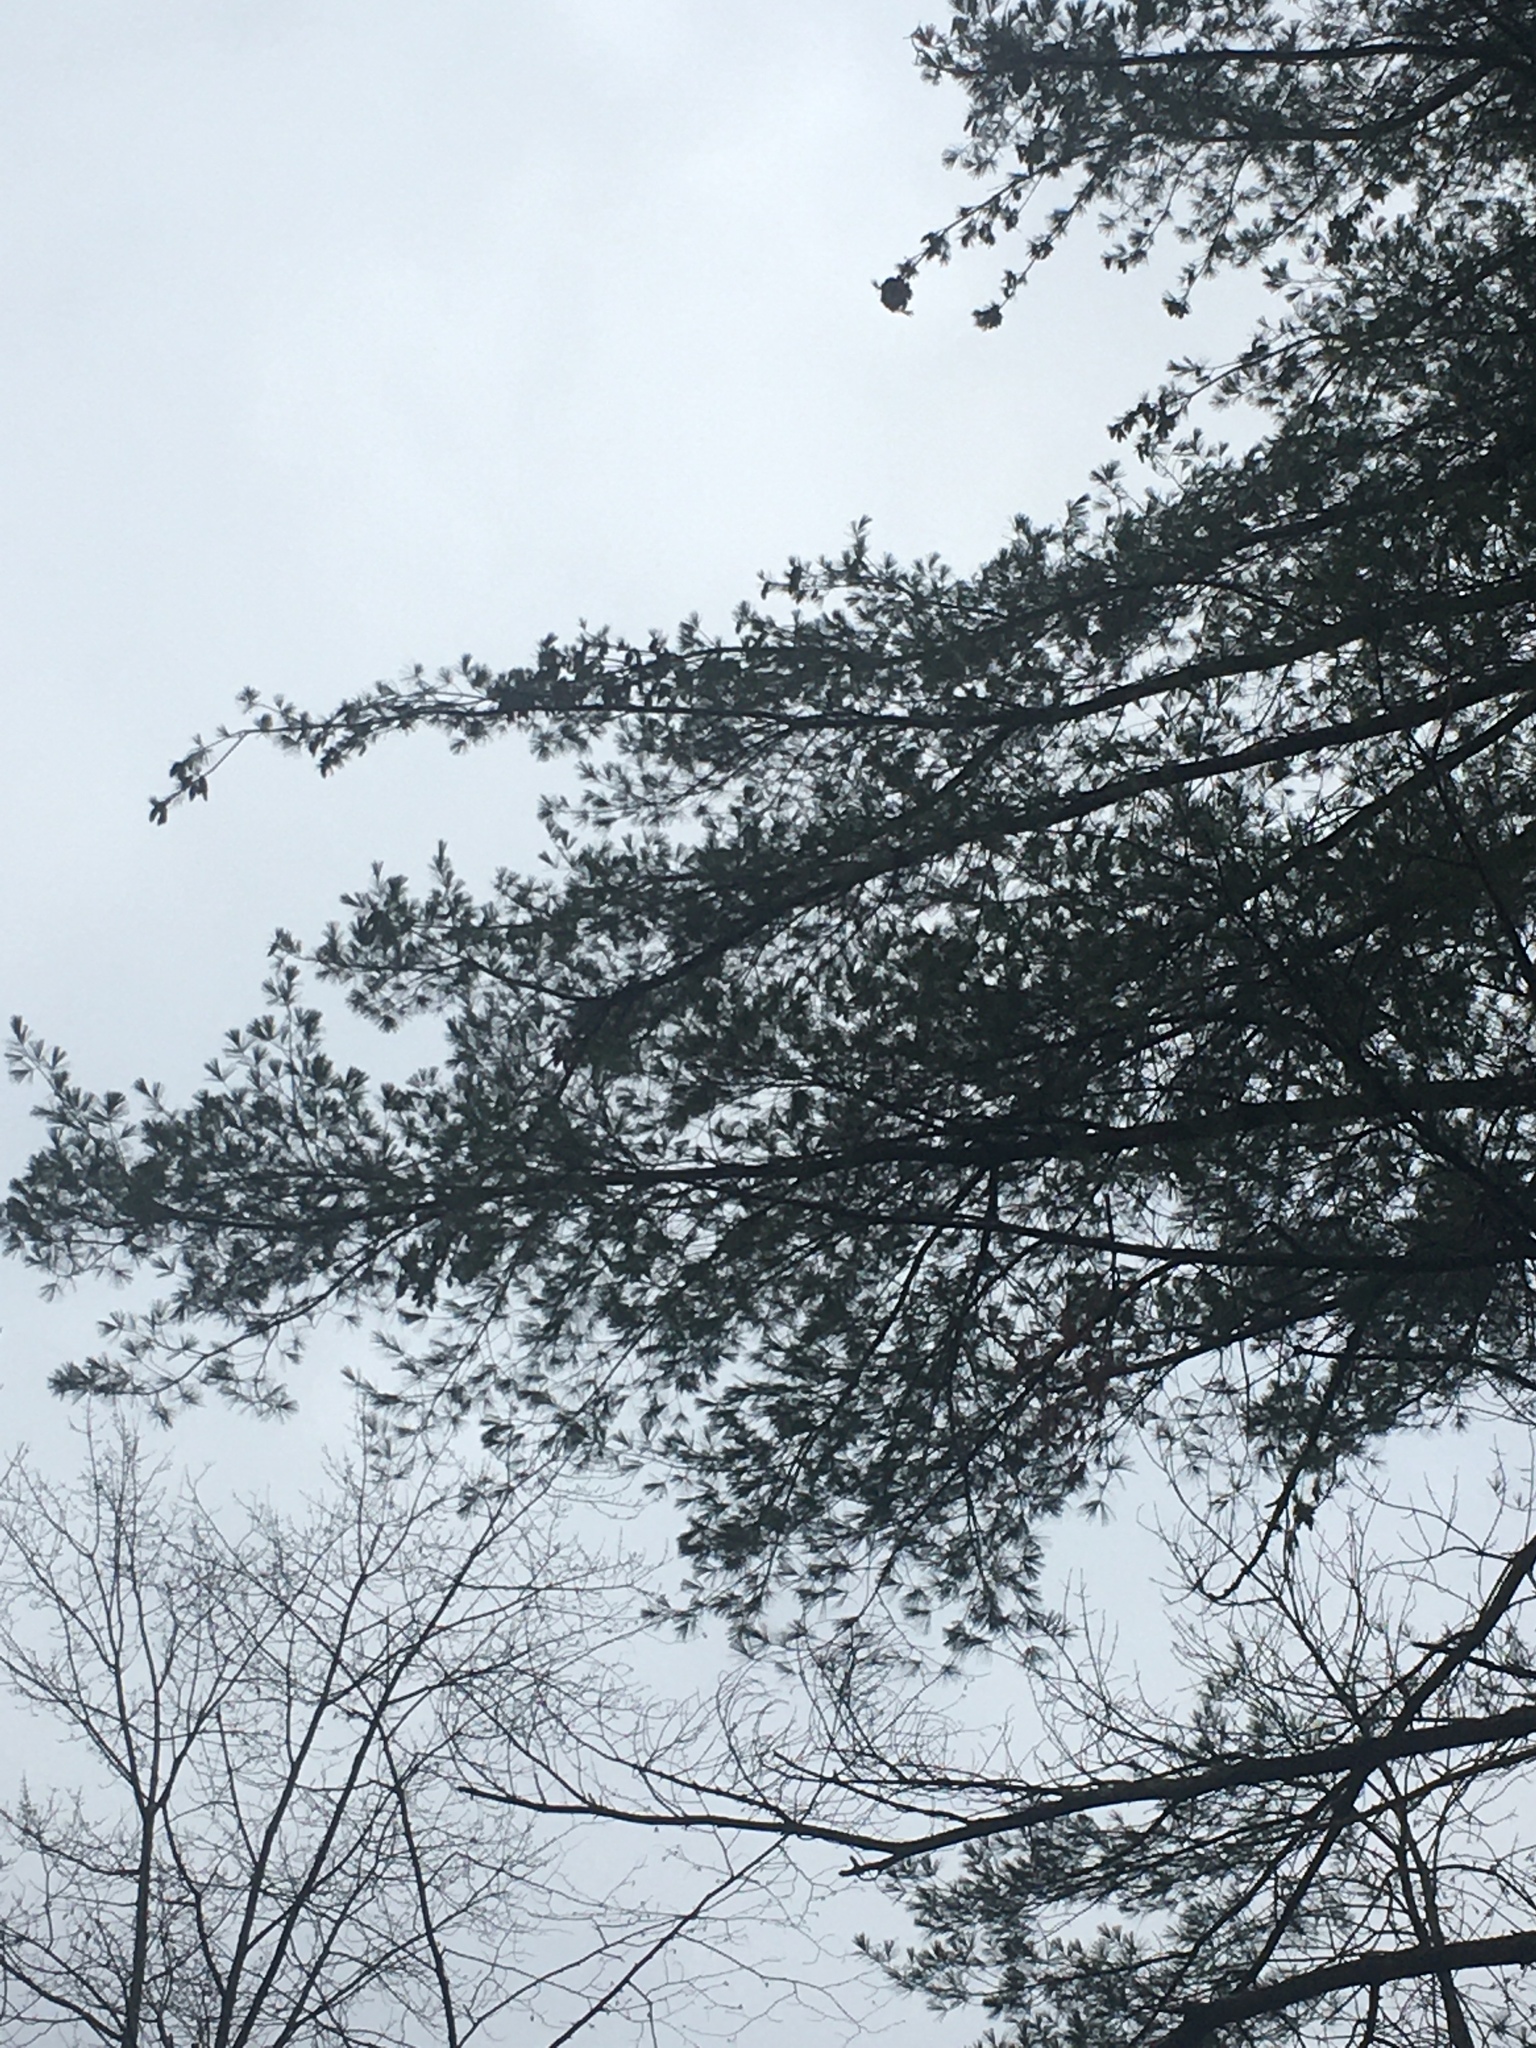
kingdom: Plantae
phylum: Tracheophyta
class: Pinopsida
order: Pinales
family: Pinaceae
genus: Pinus
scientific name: Pinus strobus
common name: Weymouth pine
